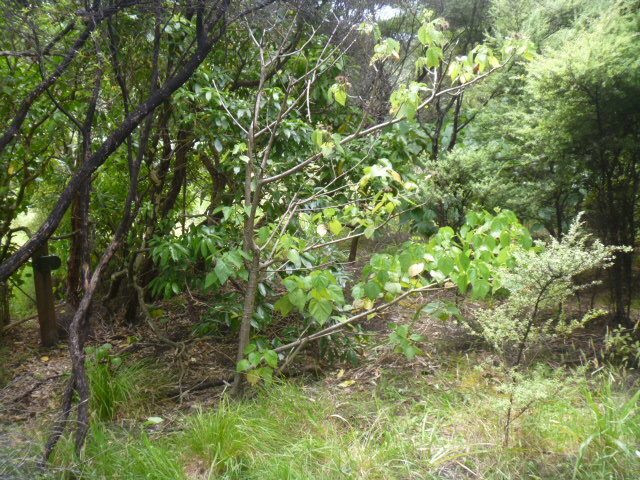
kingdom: Plantae
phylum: Tracheophyta
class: Magnoliopsida
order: Malvales
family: Malvaceae
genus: Entelea
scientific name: Entelea arborescens
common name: New zealand-mulberry
